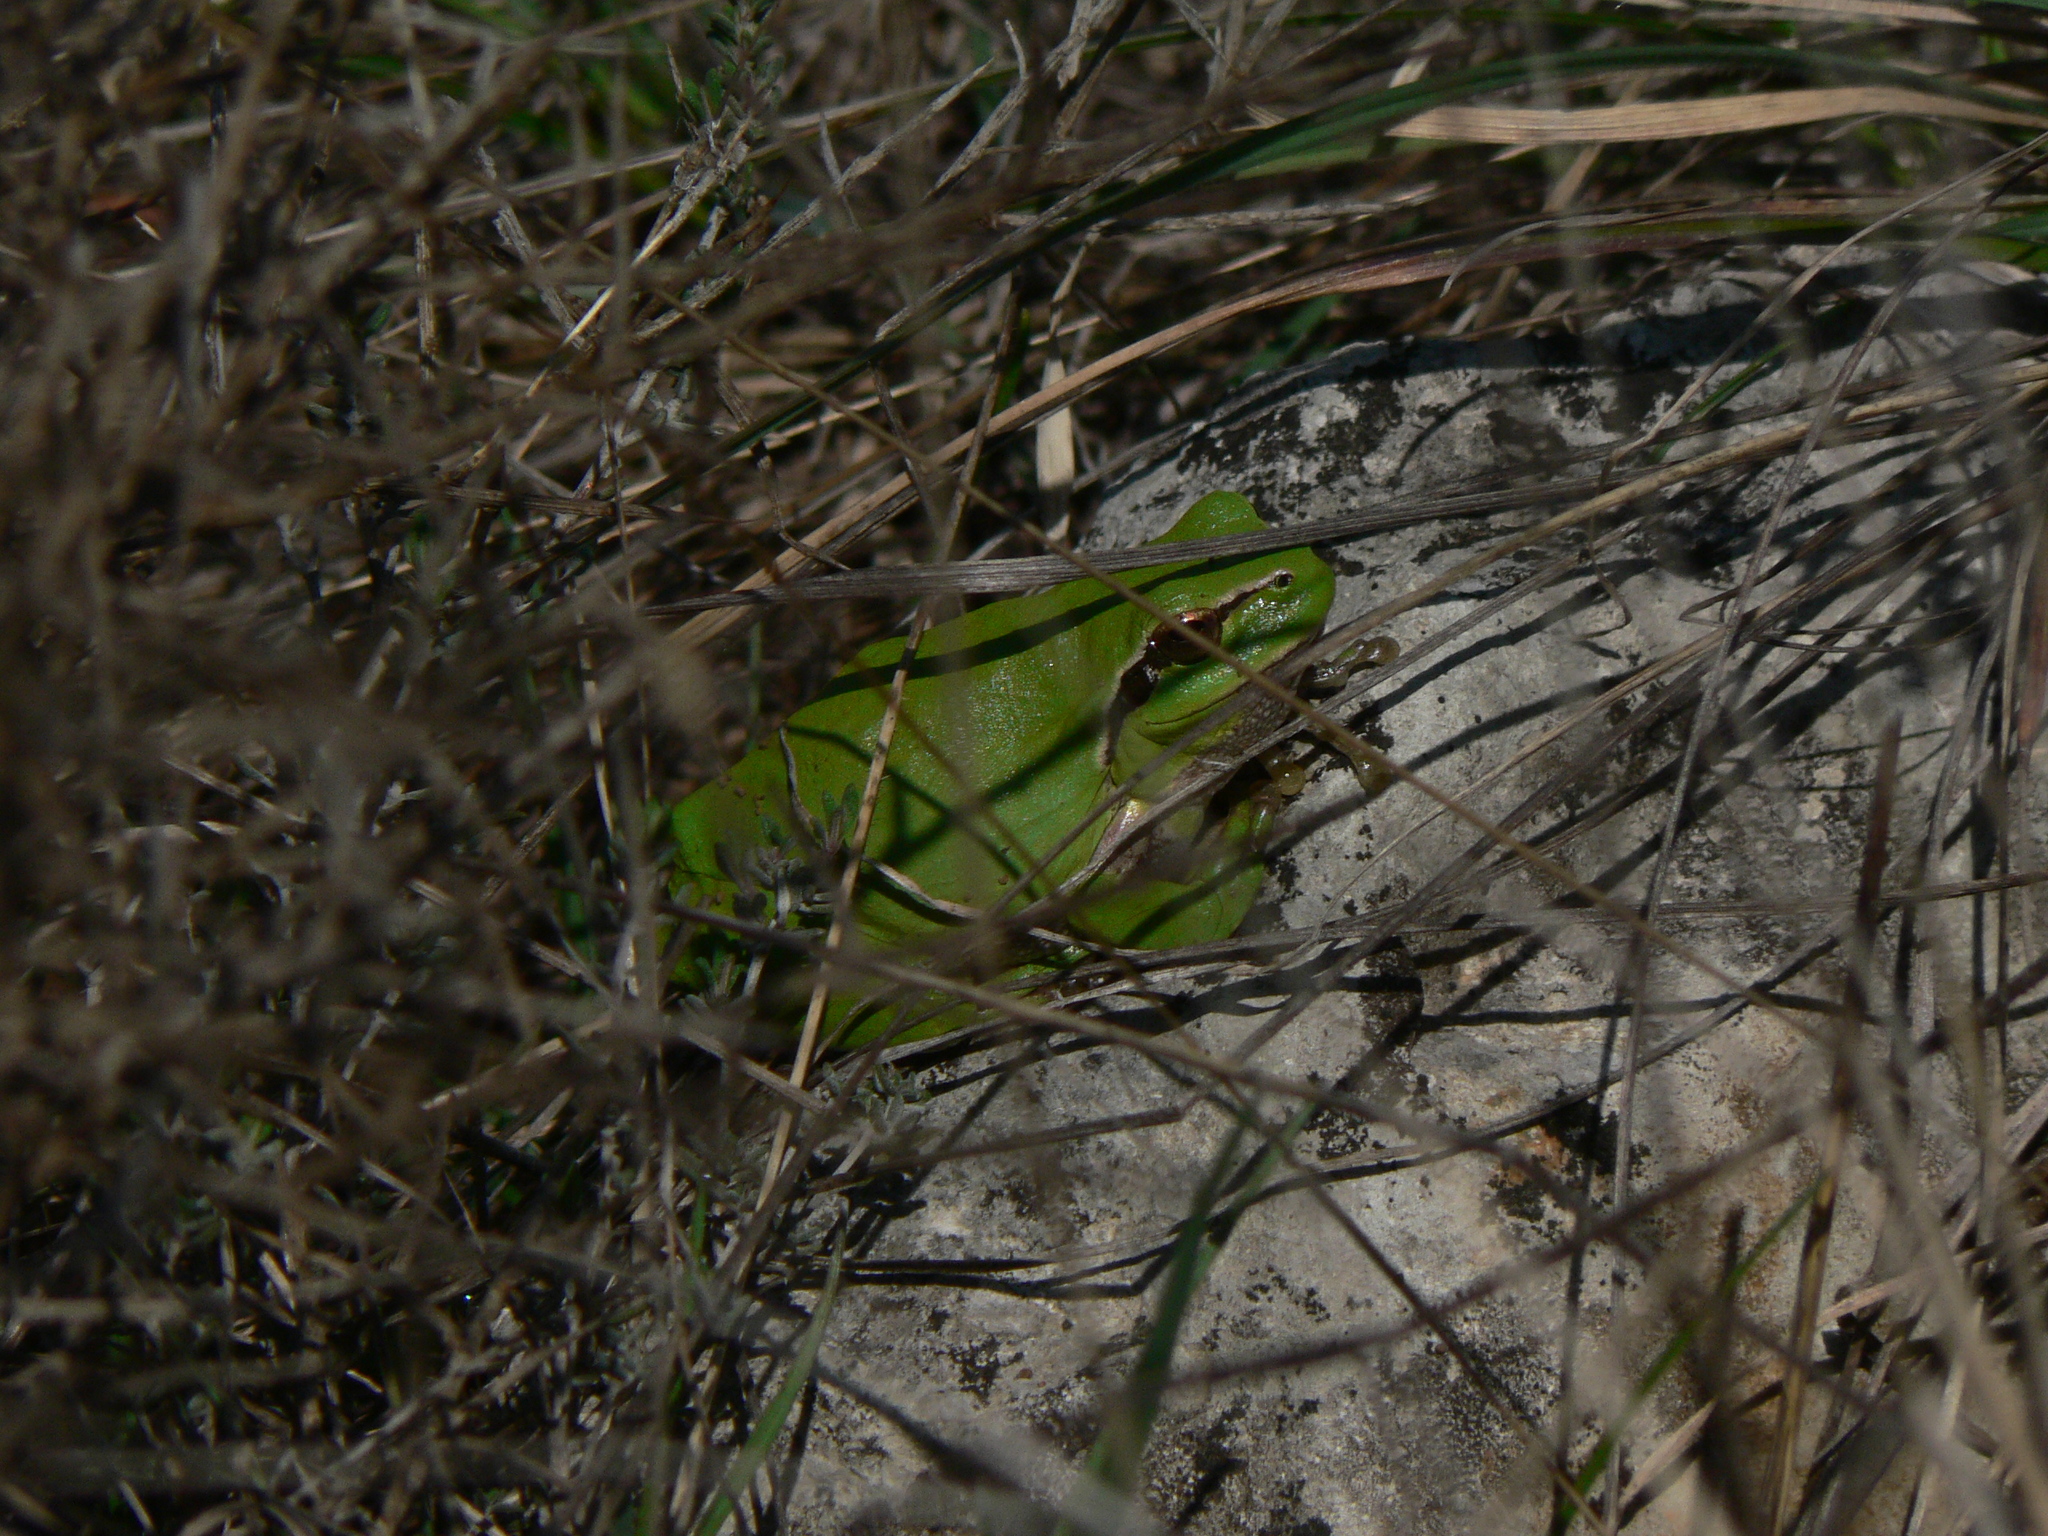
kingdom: Animalia
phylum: Chordata
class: Amphibia
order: Anura
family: Hylidae
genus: Hyla
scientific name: Hyla meridionalis
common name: Stripeless tree frog
